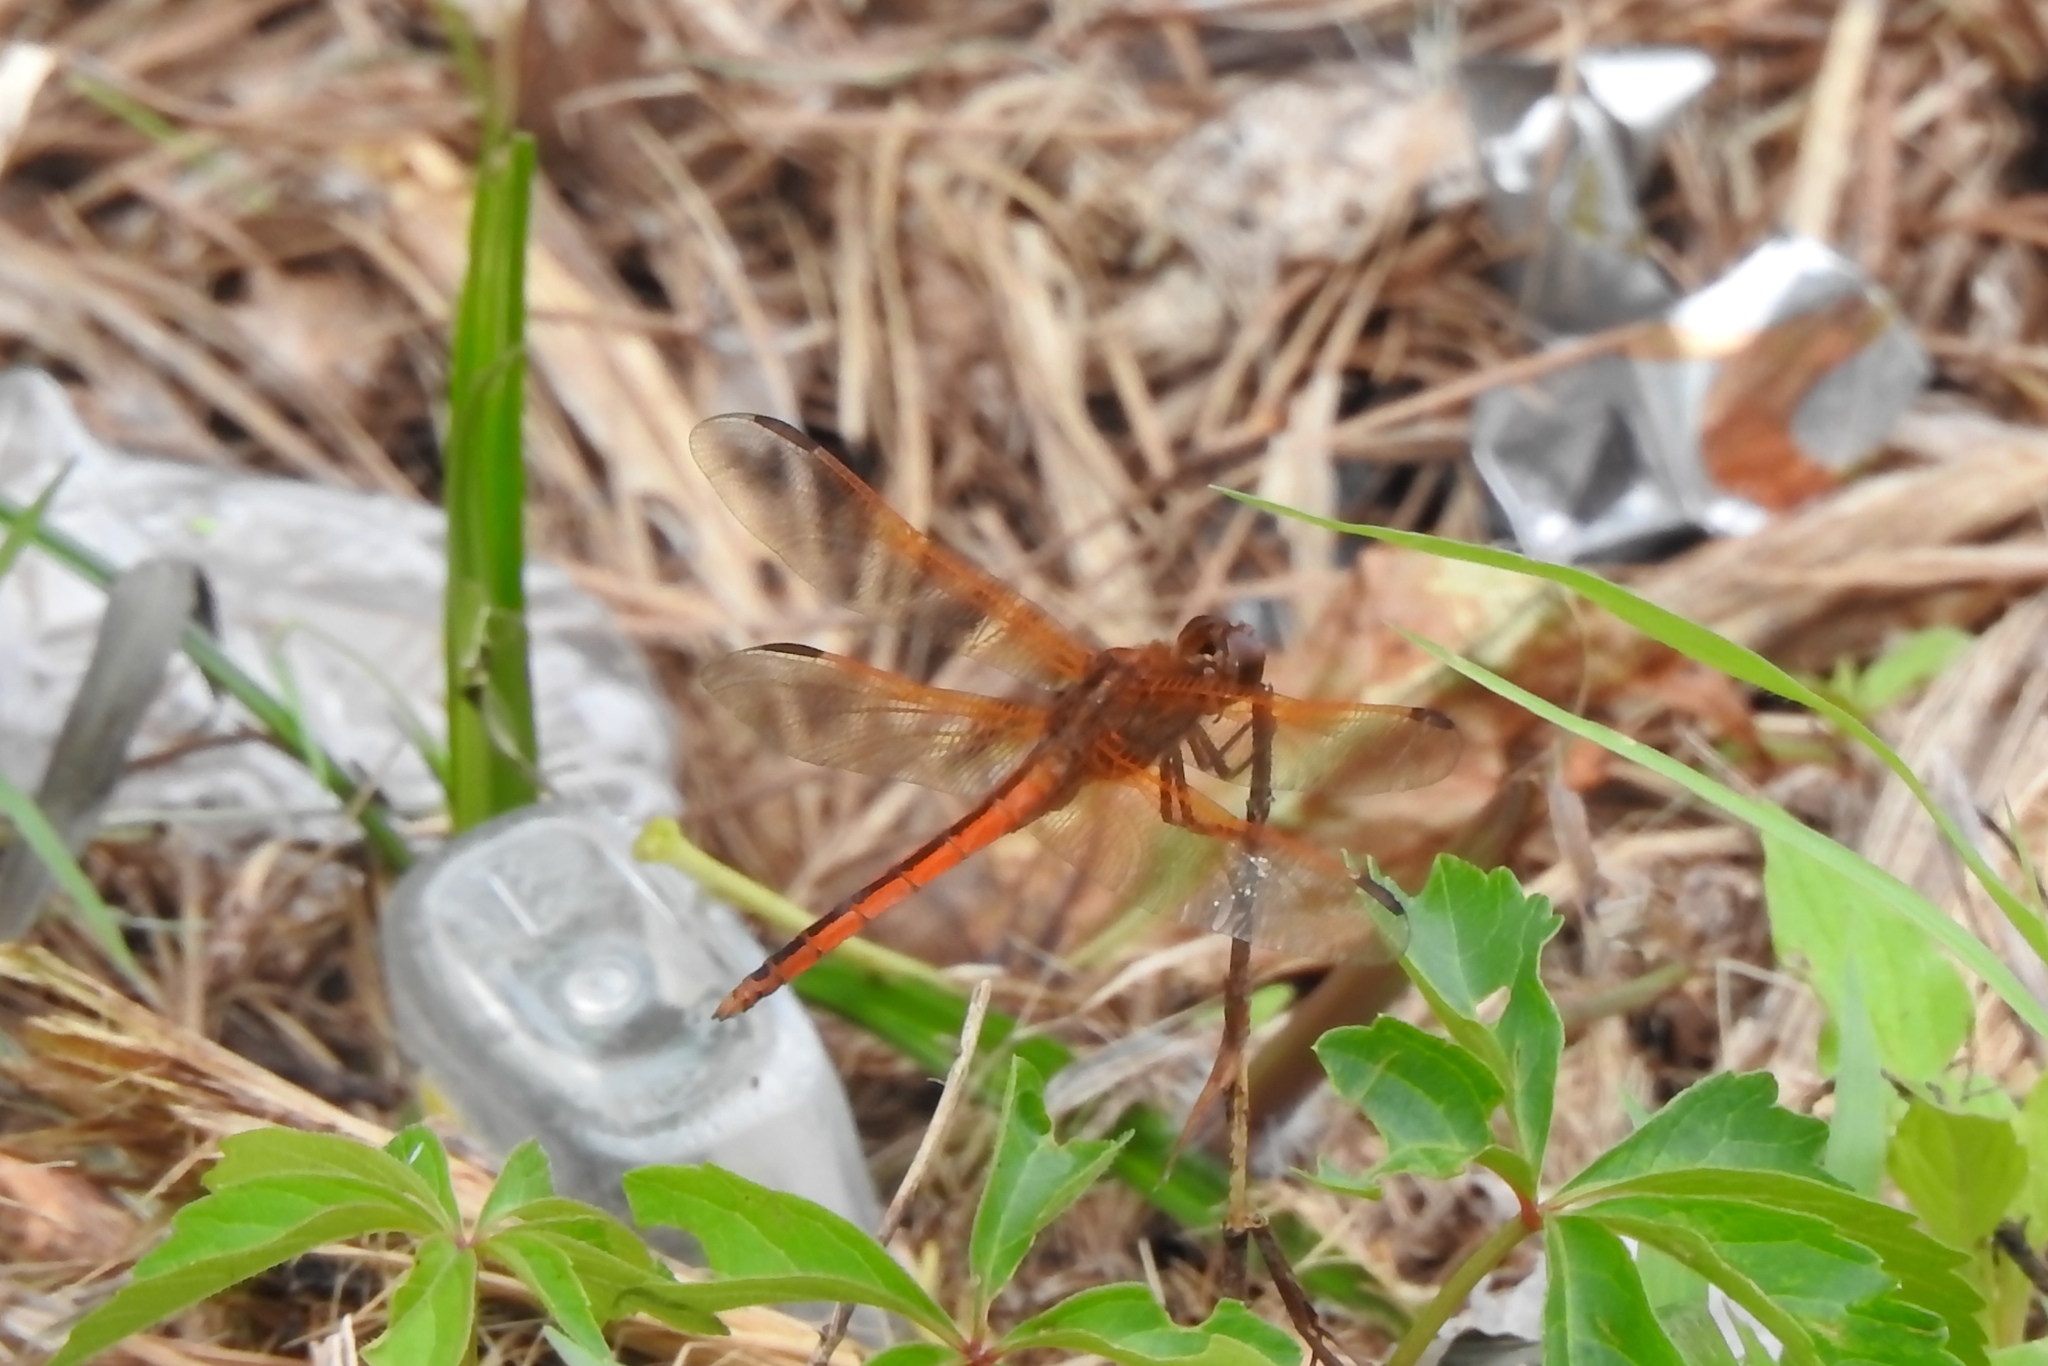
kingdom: Animalia
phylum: Arthropoda
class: Insecta
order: Odonata
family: Libellulidae
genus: Libellula
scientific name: Libellula needhami
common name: Needham's skimmer
